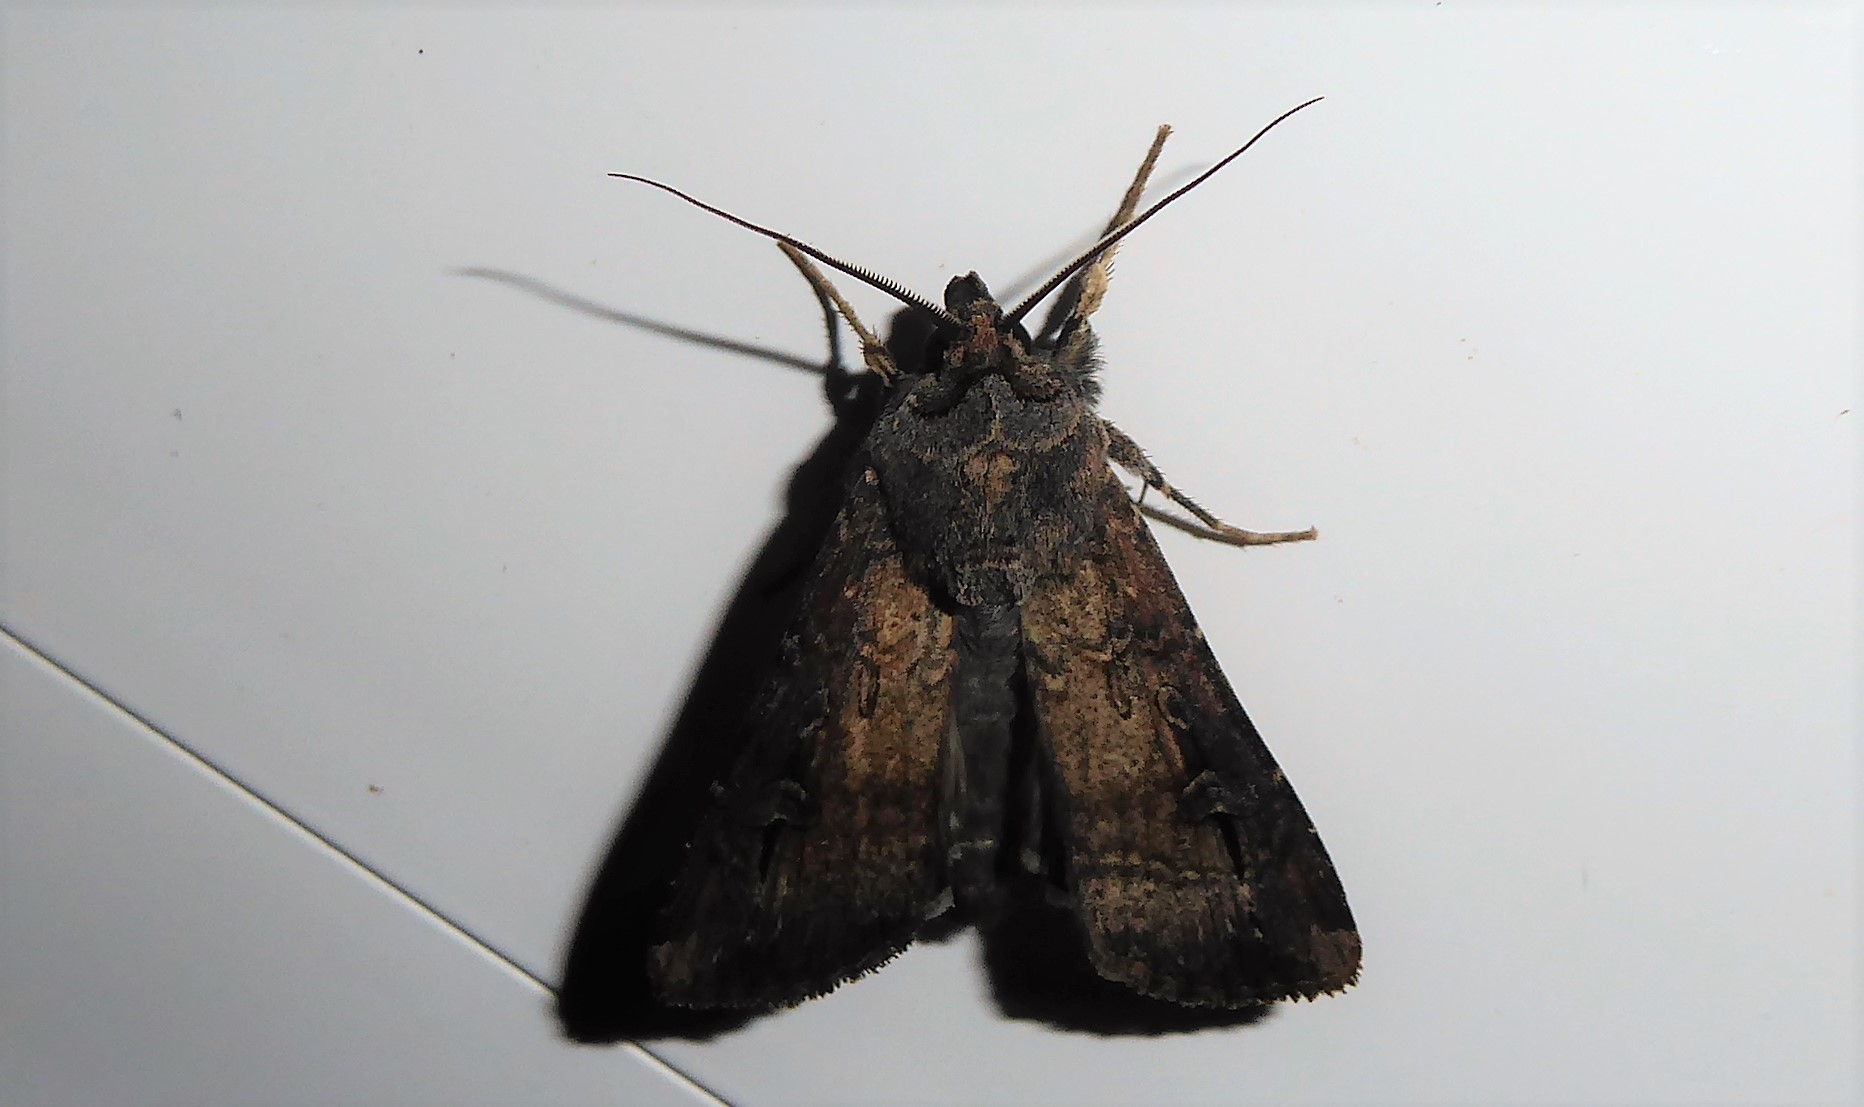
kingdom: Animalia
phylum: Arthropoda
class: Insecta
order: Lepidoptera
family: Noctuidae
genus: Agrotis
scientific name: Agrotis ipsilon
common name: Dark sword-grass
